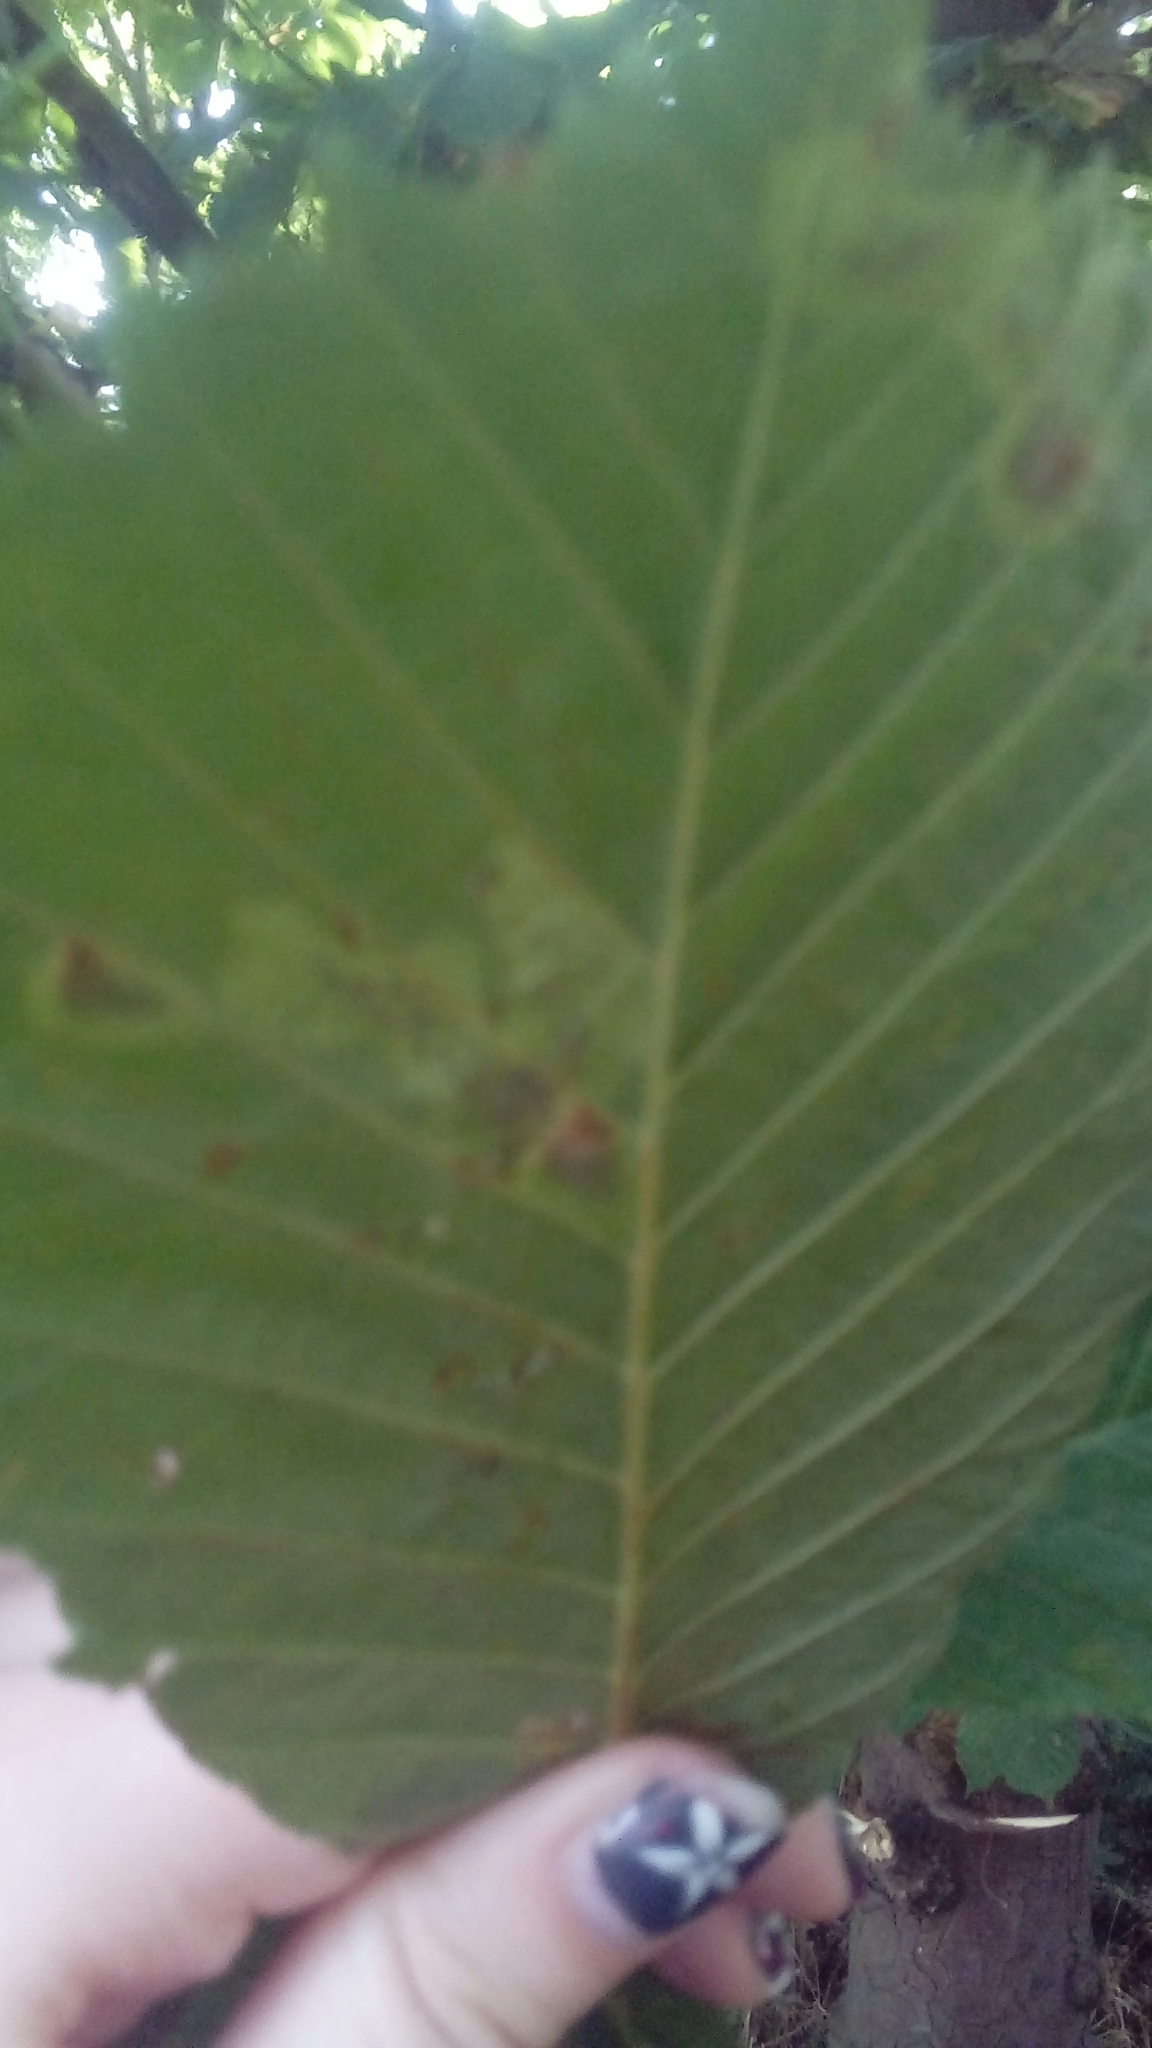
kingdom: Animalia
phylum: Arthropoda
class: Insecta
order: Lepidoptera
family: Gracillariidae
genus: Cameraria
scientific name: Cameraria ohridella
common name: Horse-chestnut leaf-miner
